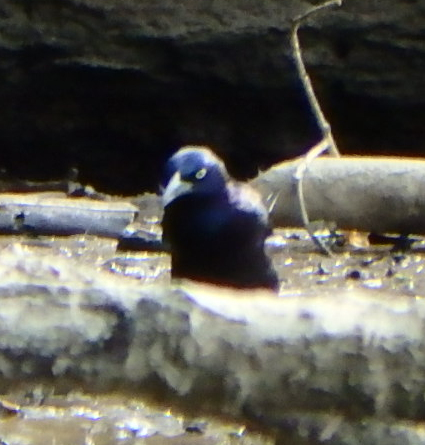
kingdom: Animalia
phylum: Chordata
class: Aves
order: Passeriformes
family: Icteridae
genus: Quiscalus
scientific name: Quiscalus quiscula
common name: Common grackle
